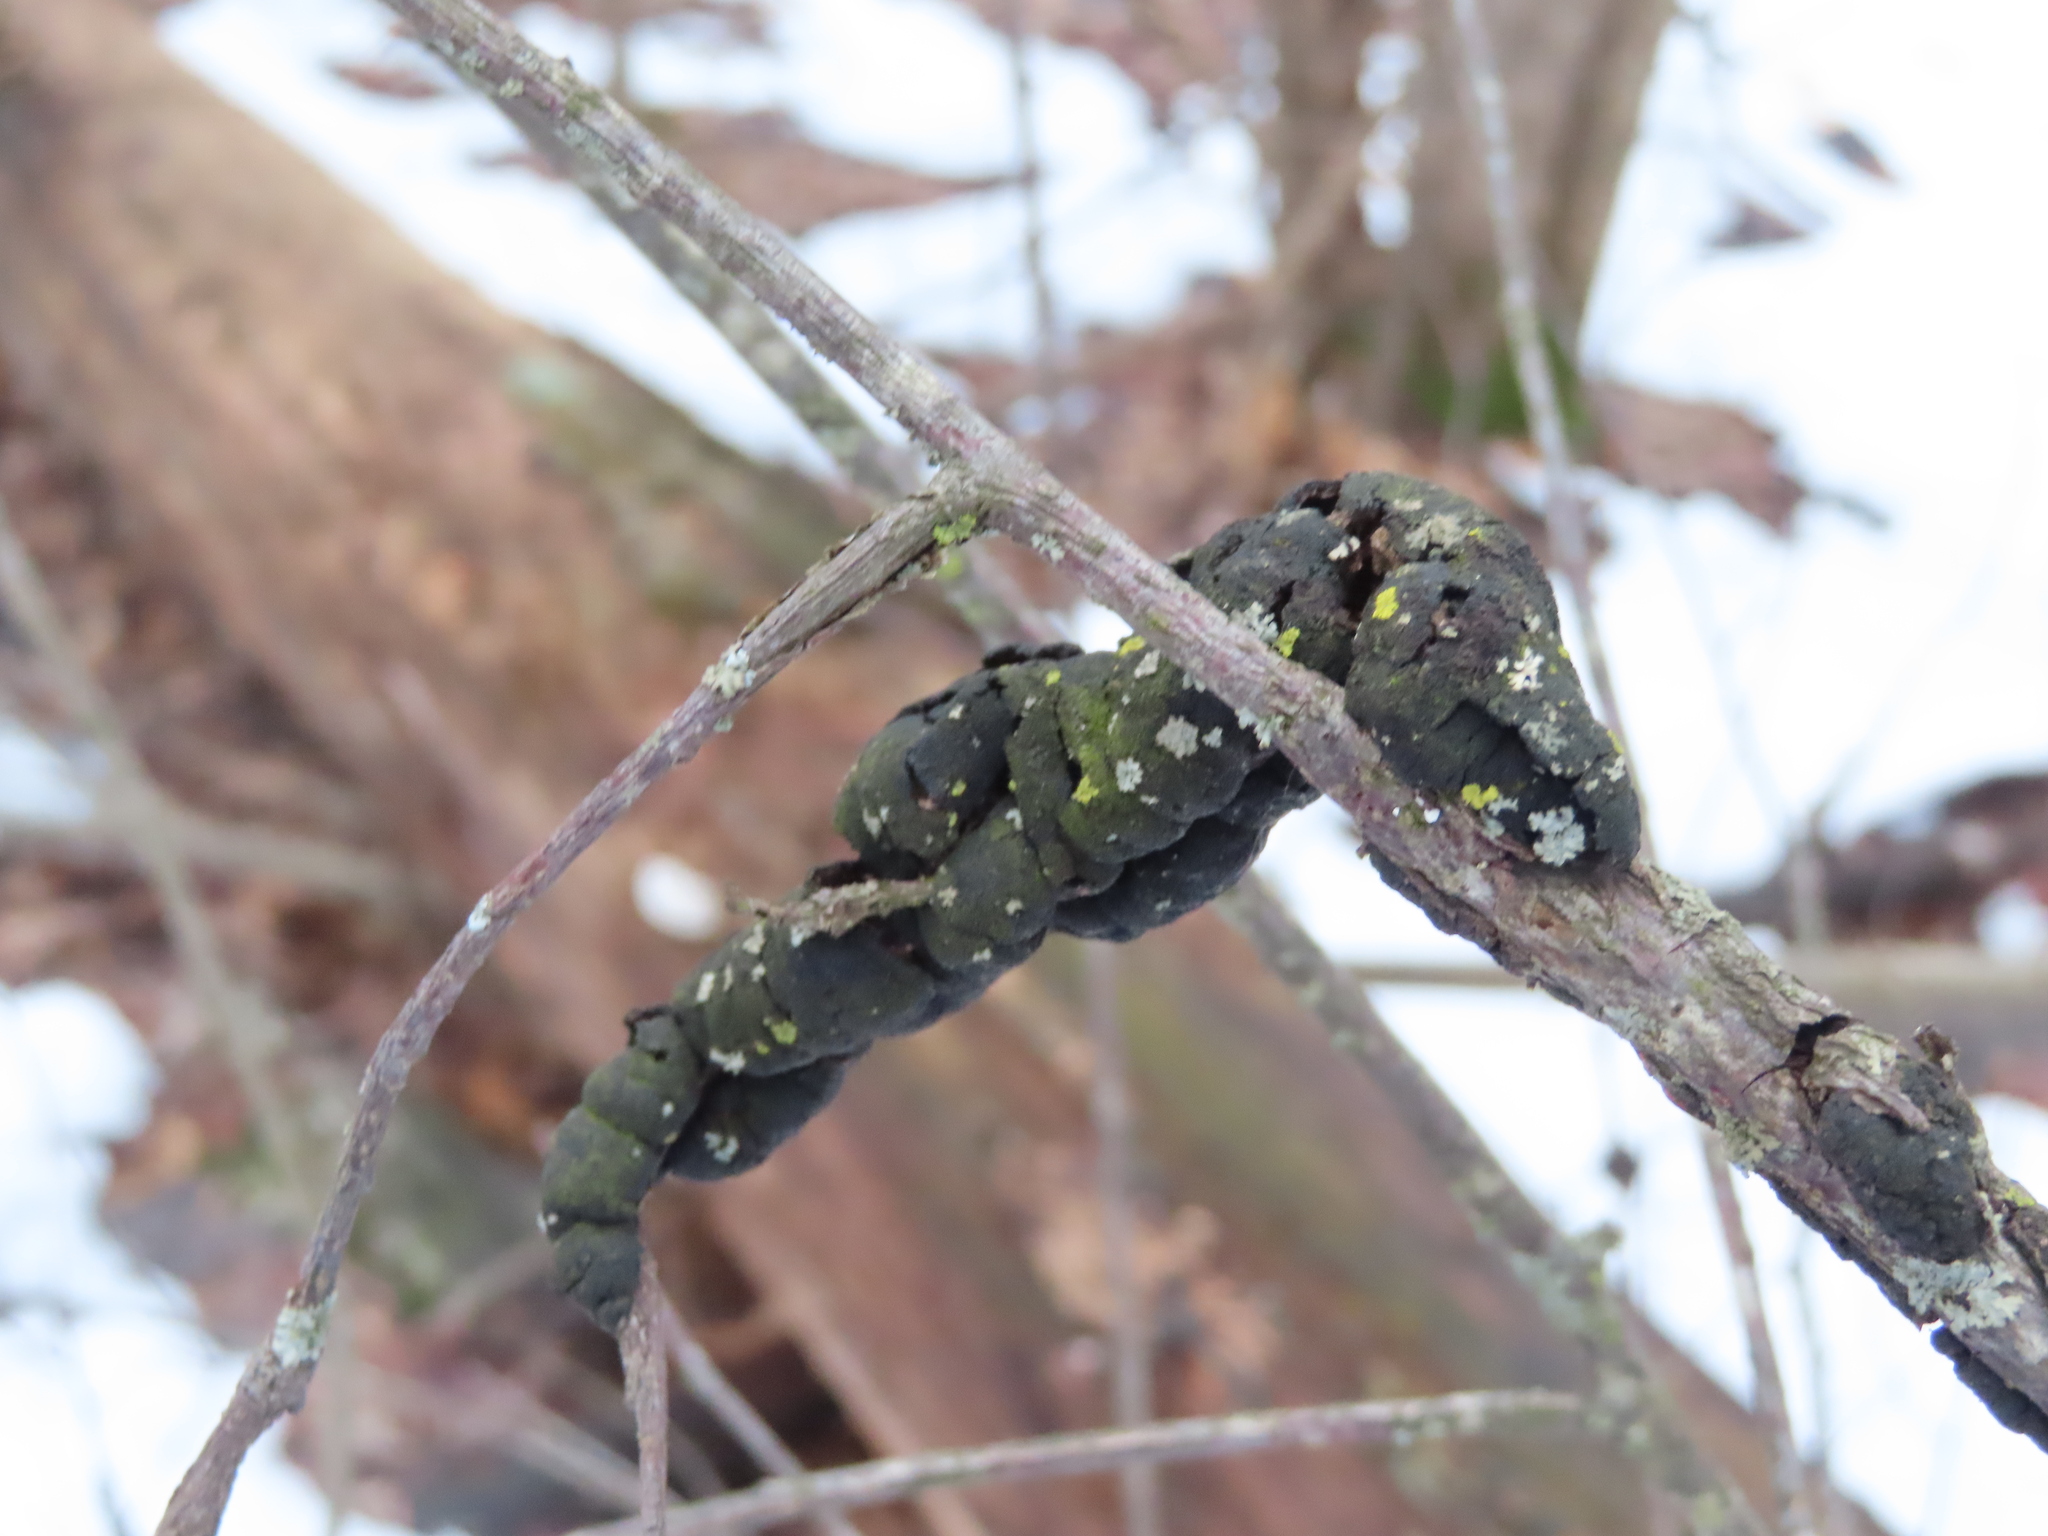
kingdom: Fungi
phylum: Ascomycota
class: Dothideomycetes
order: Venturiales
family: Venturiaceae
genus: Apiosporina
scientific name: Apiosporina morbosa
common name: Black knot
